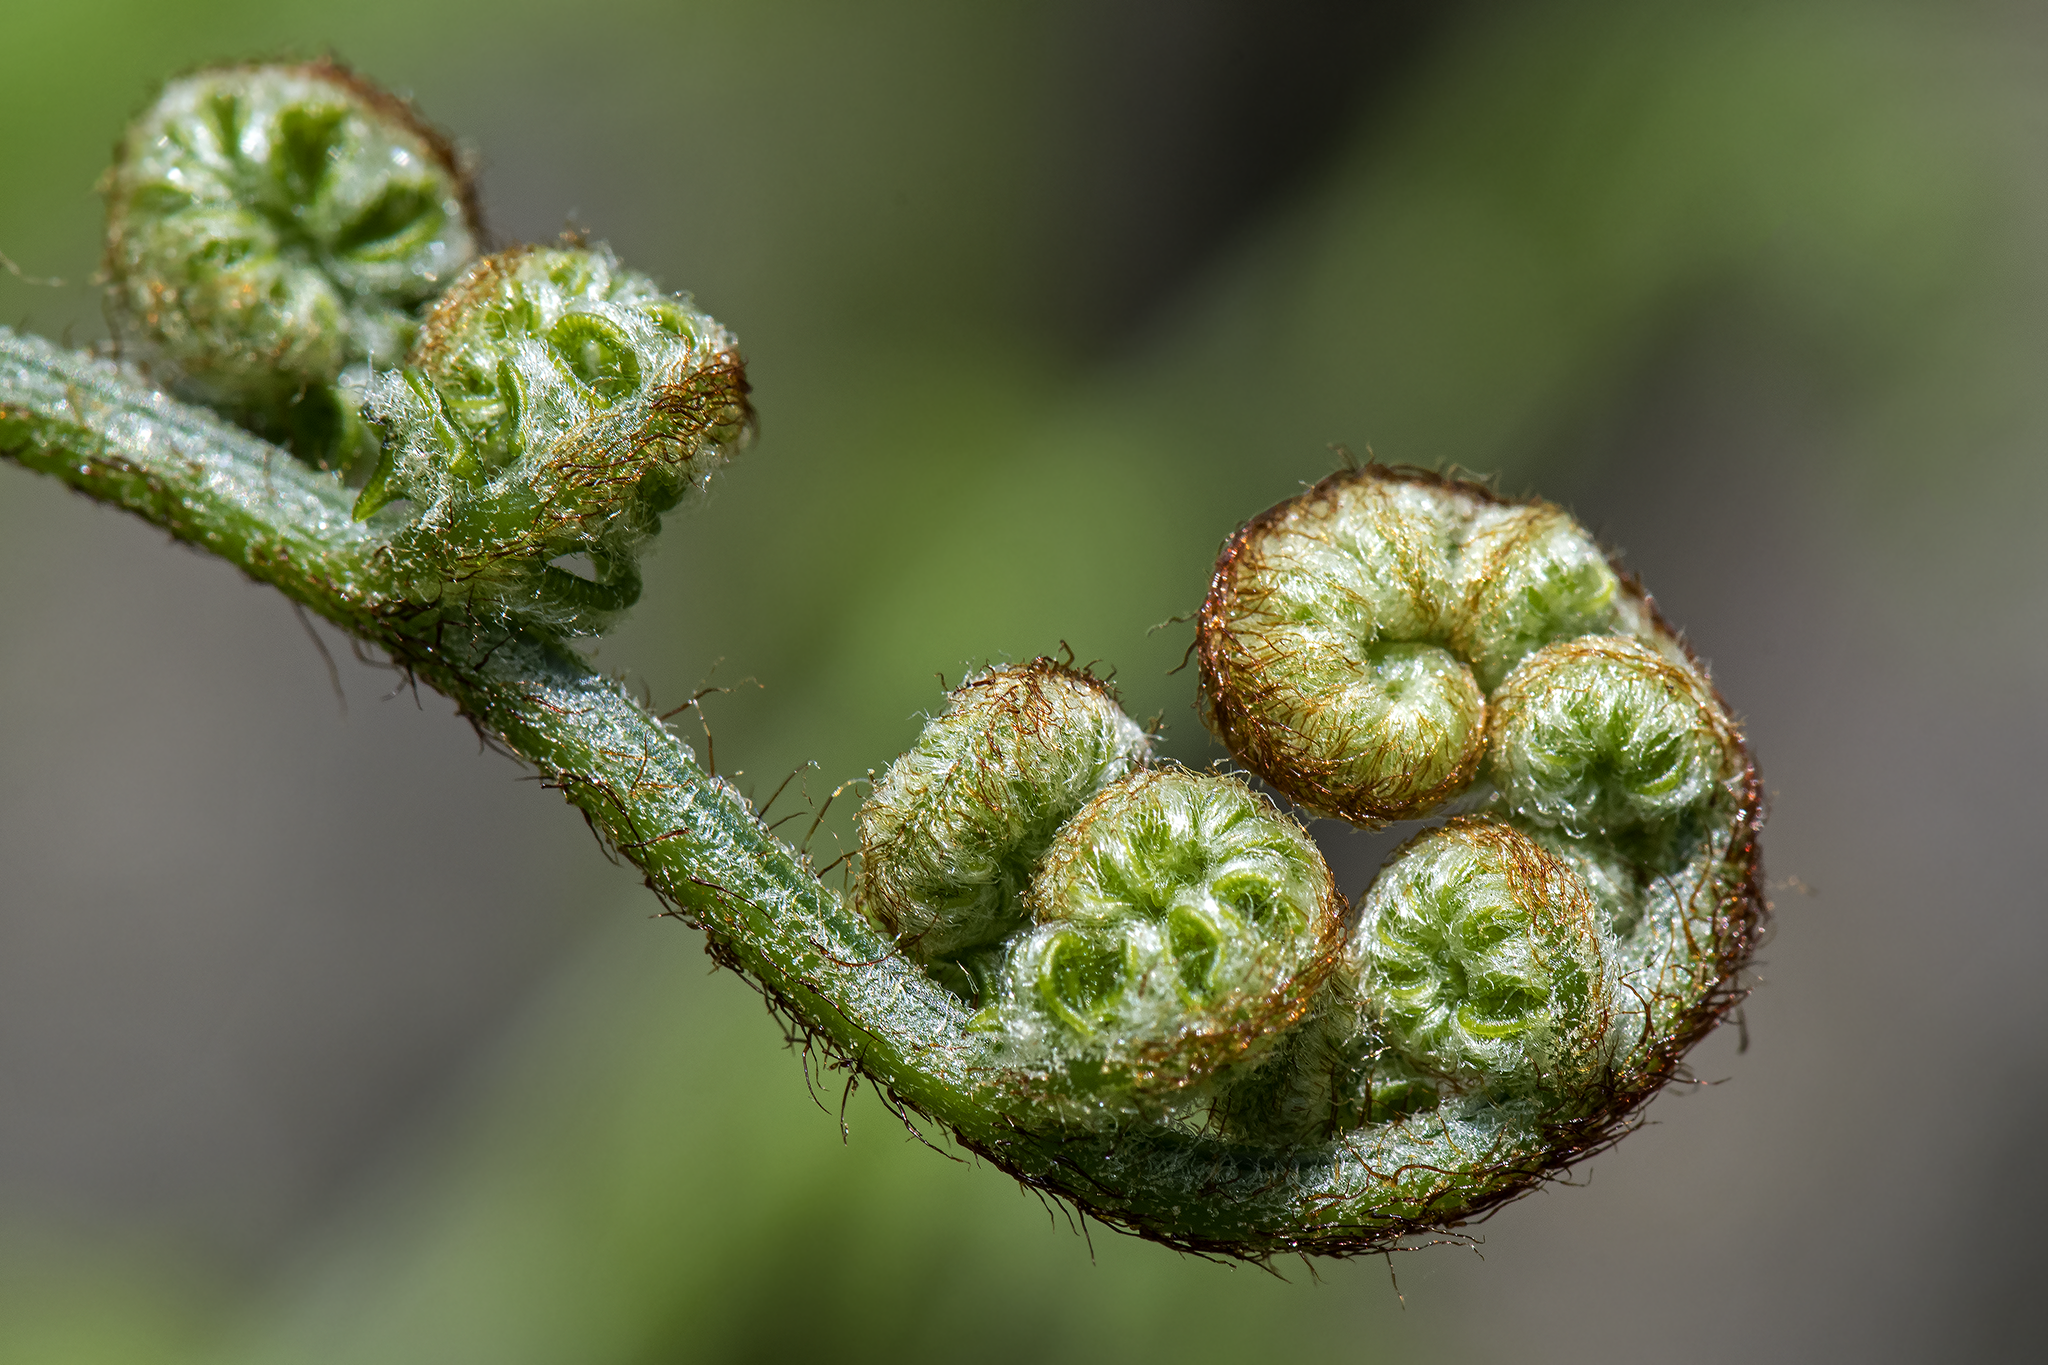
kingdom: Plantae
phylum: Tracheophyta
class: Polypodiopsida
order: Polypodiales
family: Dennstaedtiaceae
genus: Pteridium
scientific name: Pteridium aquilinum
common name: Bracken
